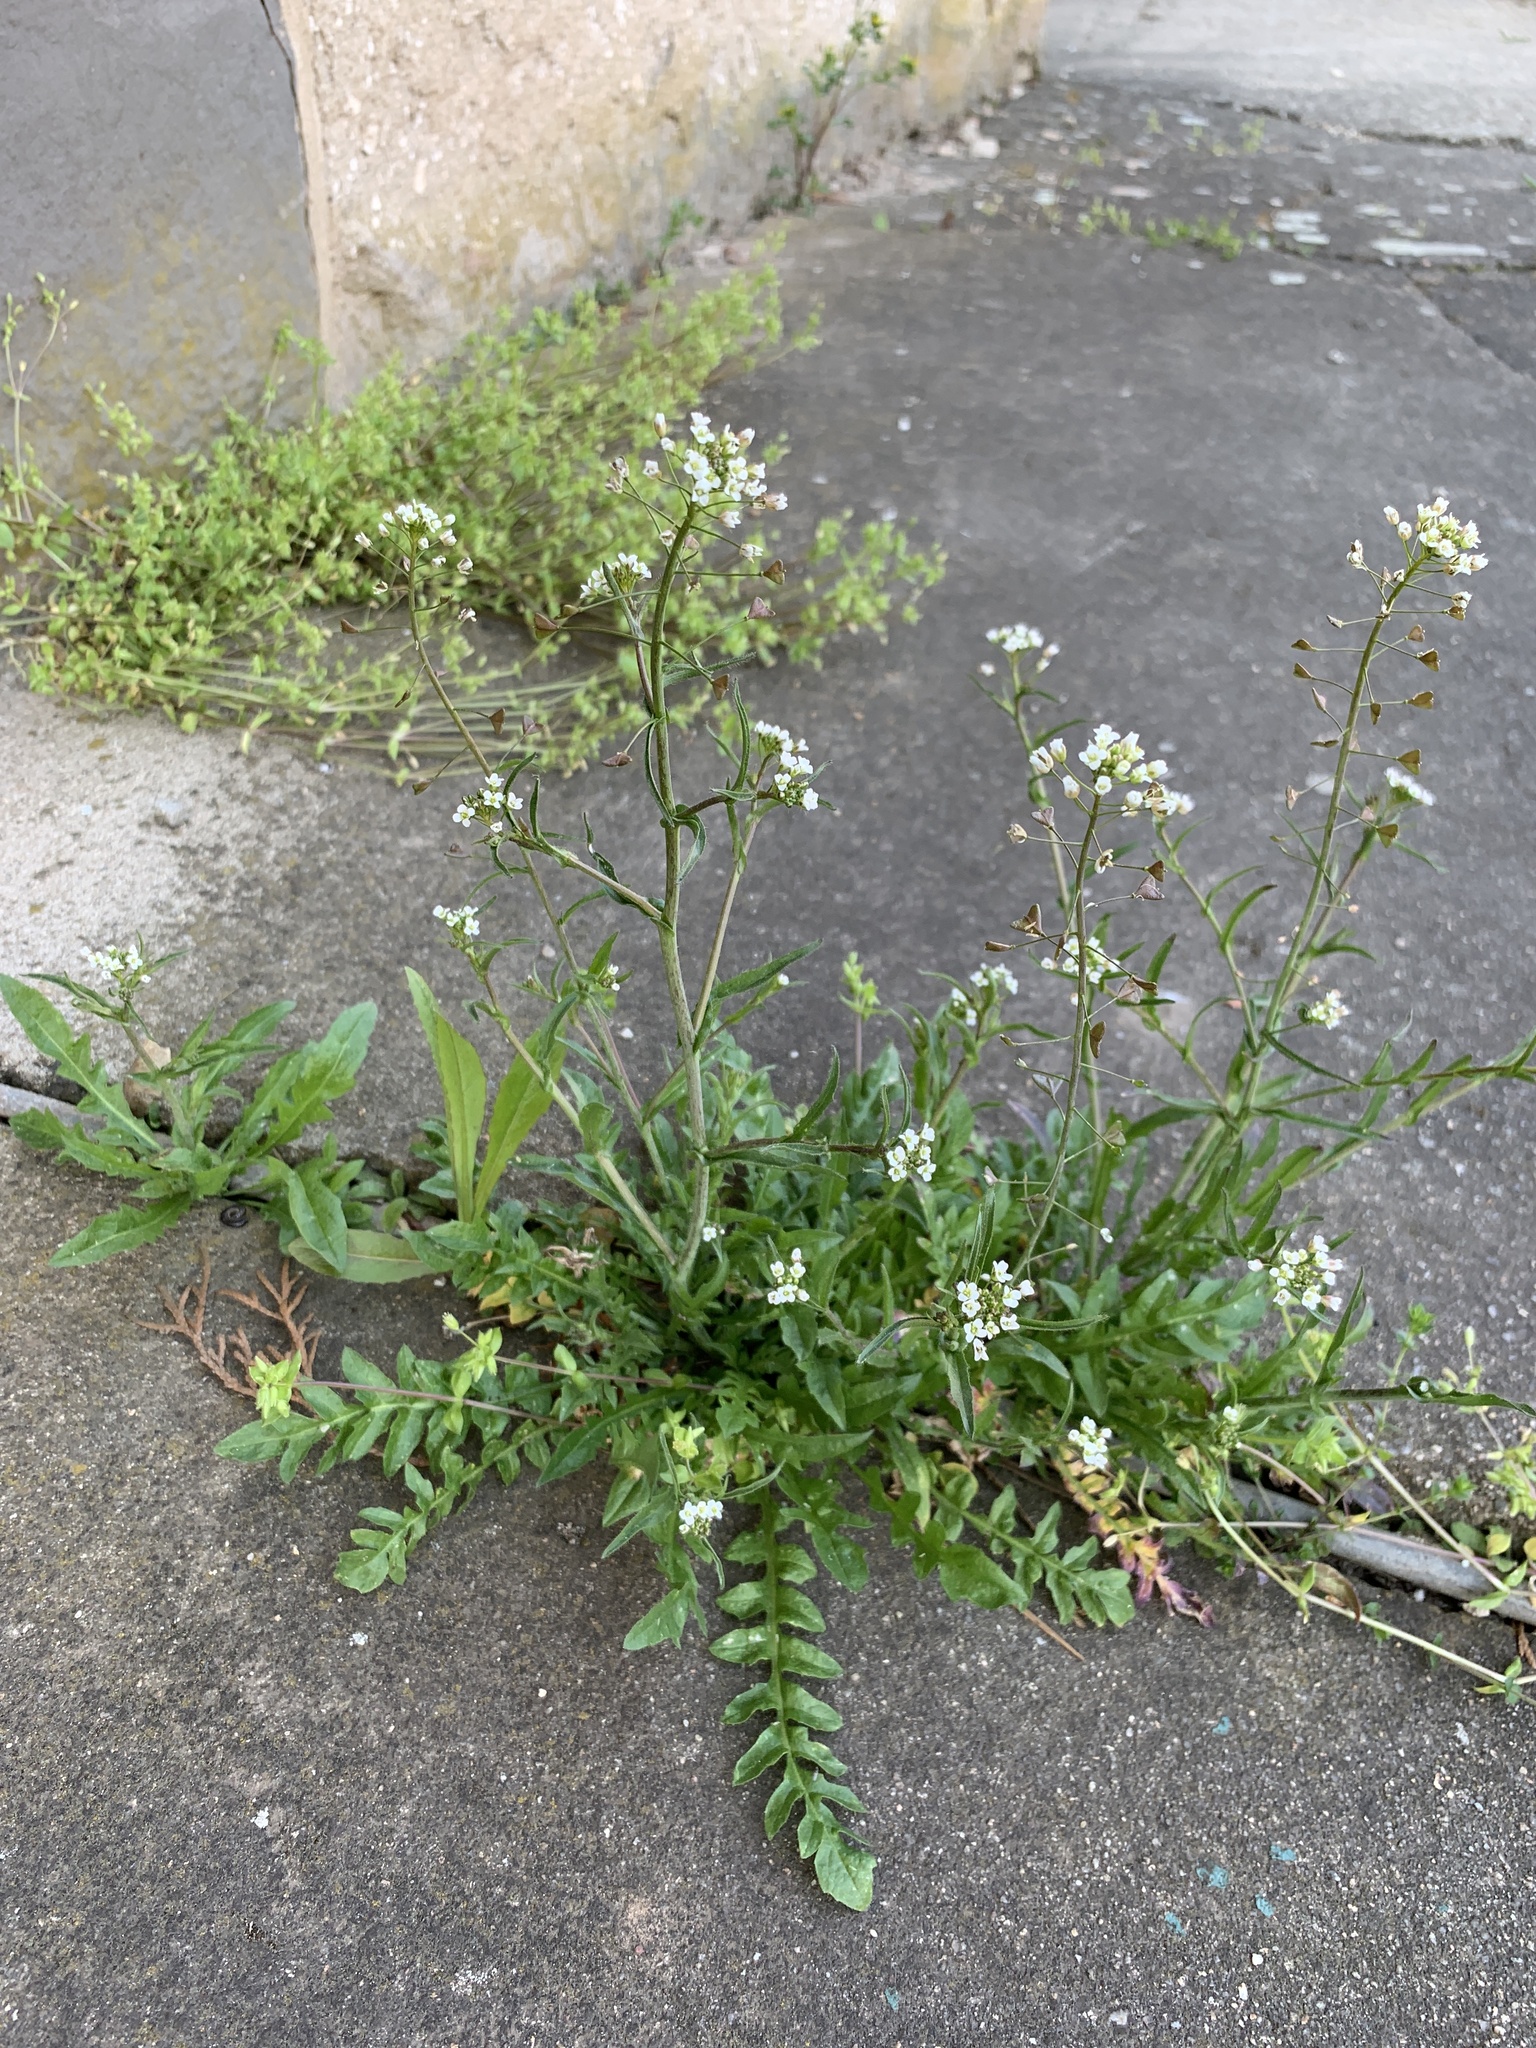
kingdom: Plantae
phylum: Tracheophyta
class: Magnoliopsida
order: Brassicales
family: Brassicaceae
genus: Capsella
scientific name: Capsella bursa-pastoris
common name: Shepherd's purse
